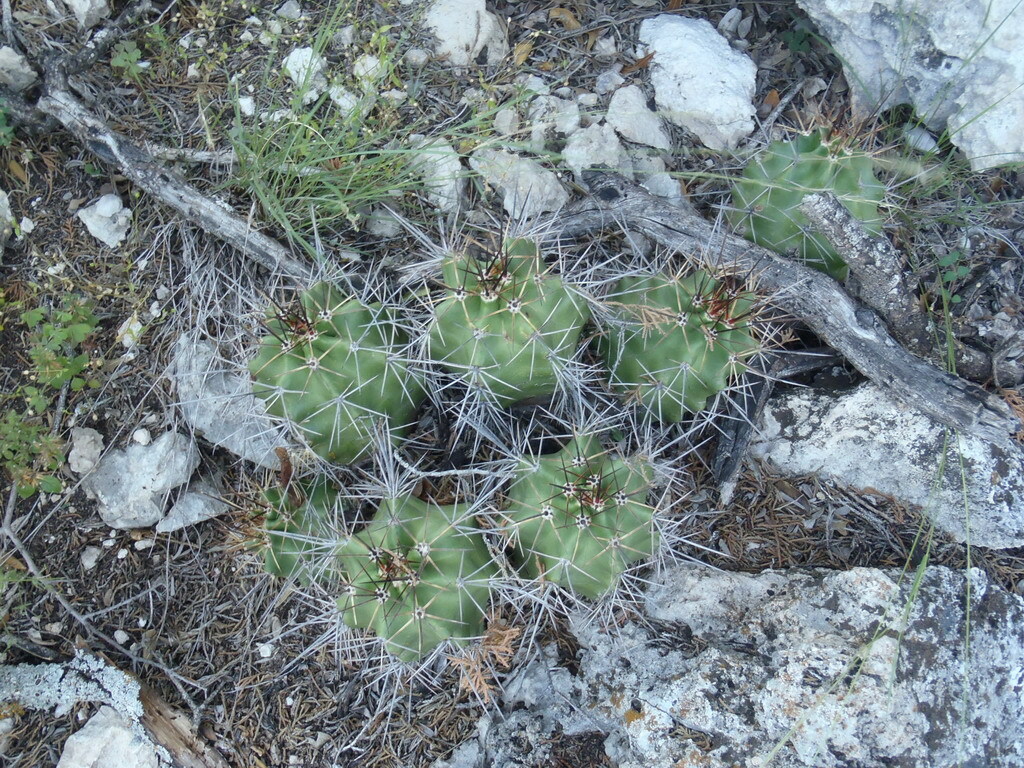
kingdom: Plantae
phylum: Tracheophyta
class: Magnoliopsida
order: Caryophyllales
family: Cactaceae
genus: Echinocereus
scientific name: Echinocereus coccineus
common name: Scarlet hedgehog cactus
